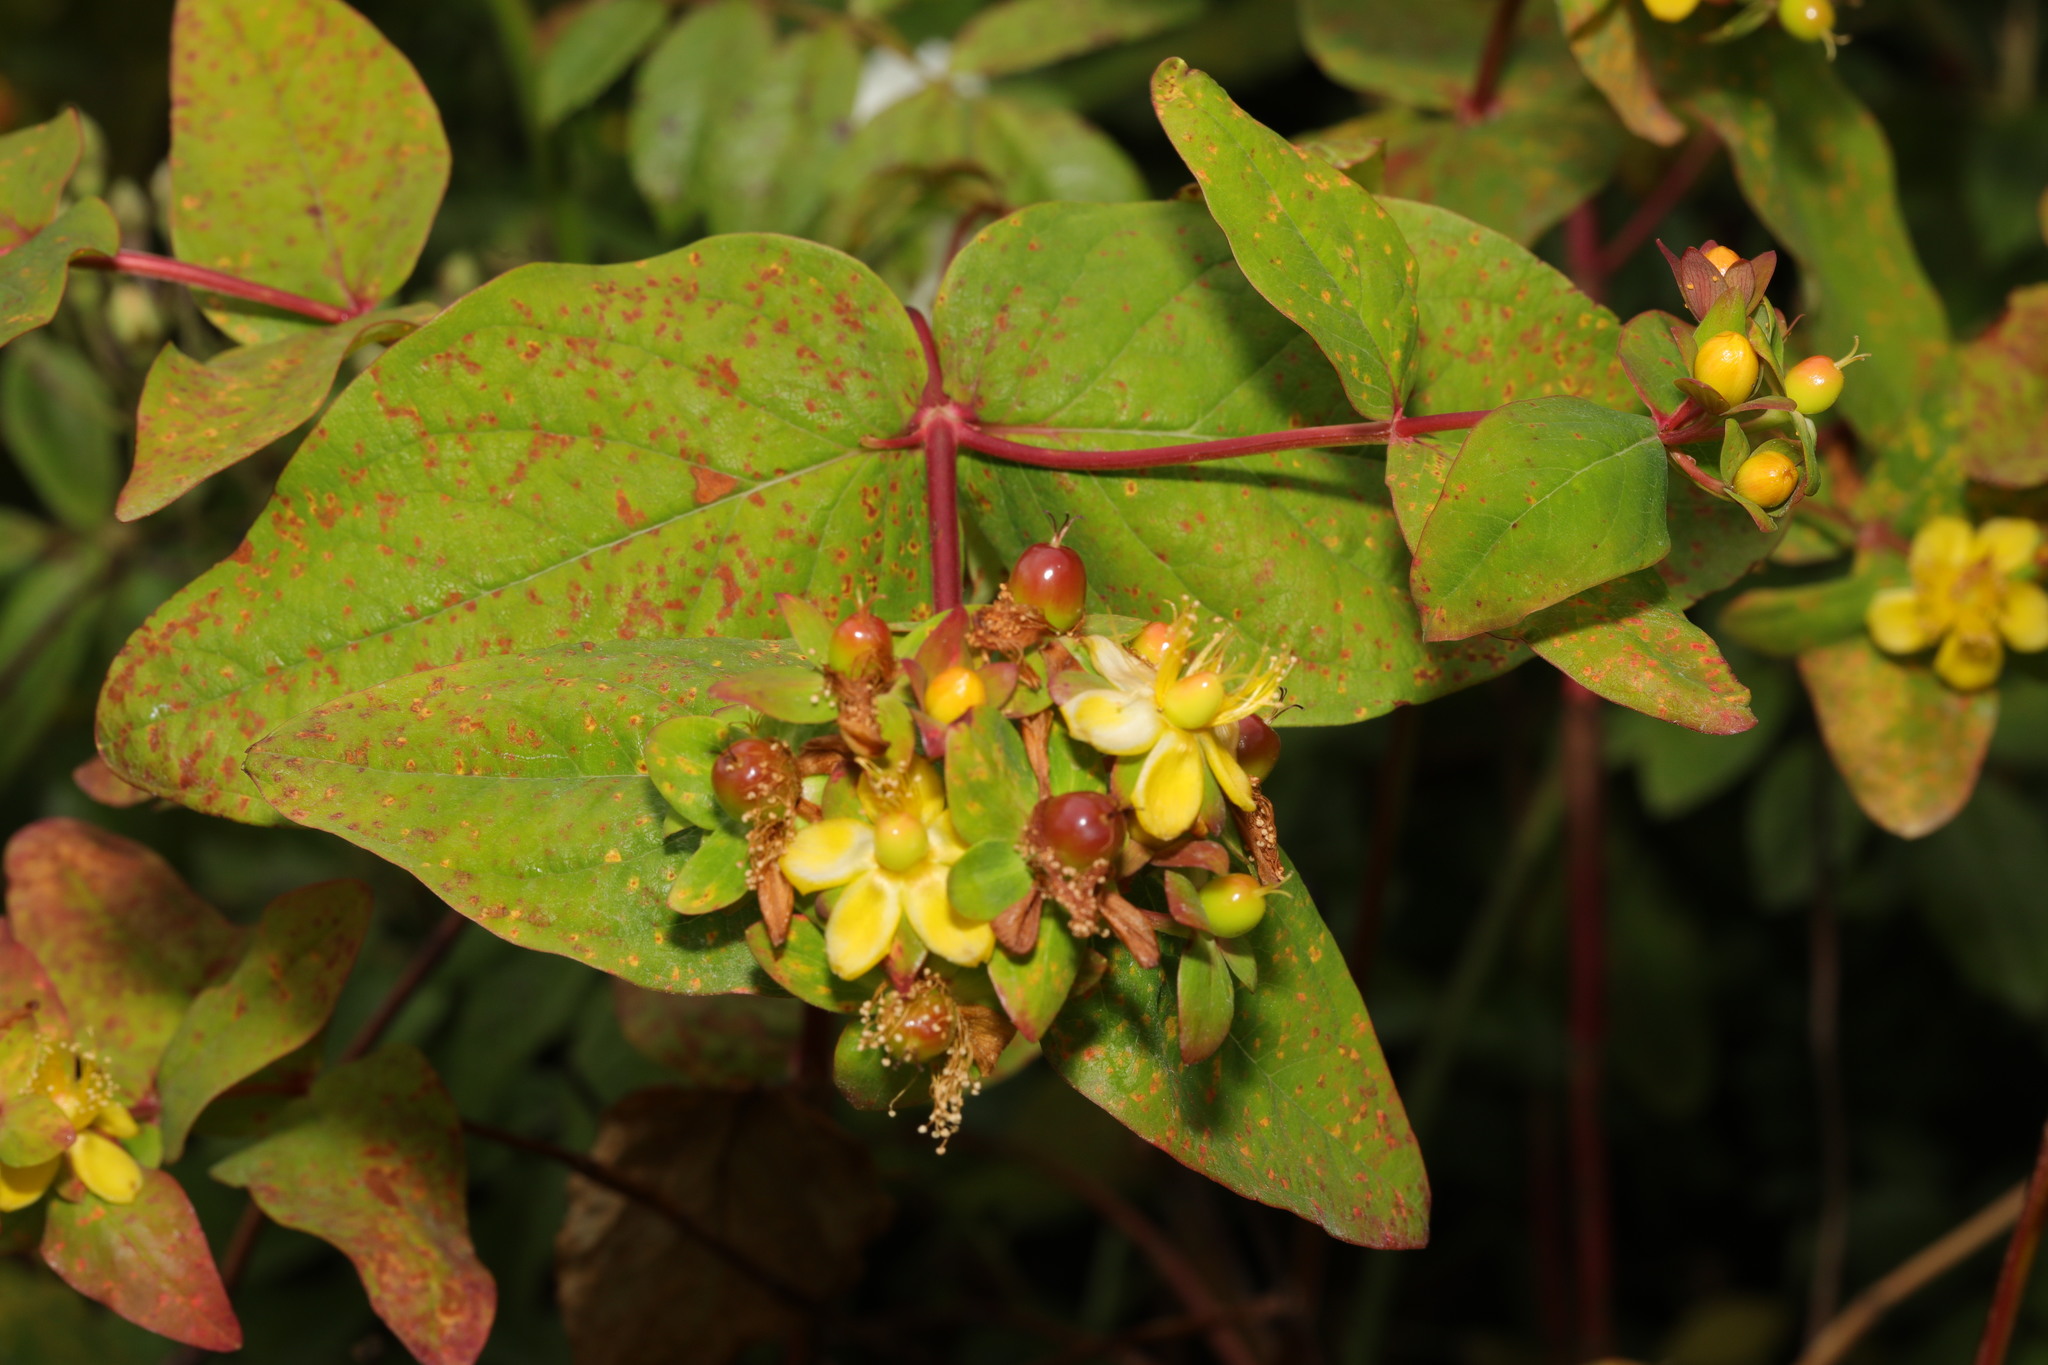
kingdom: Fungi
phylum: Basidiomycota
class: Pucciniomycetes
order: Pucciniales
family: Melampsoraceae
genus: Melampsora
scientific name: Melampsora
